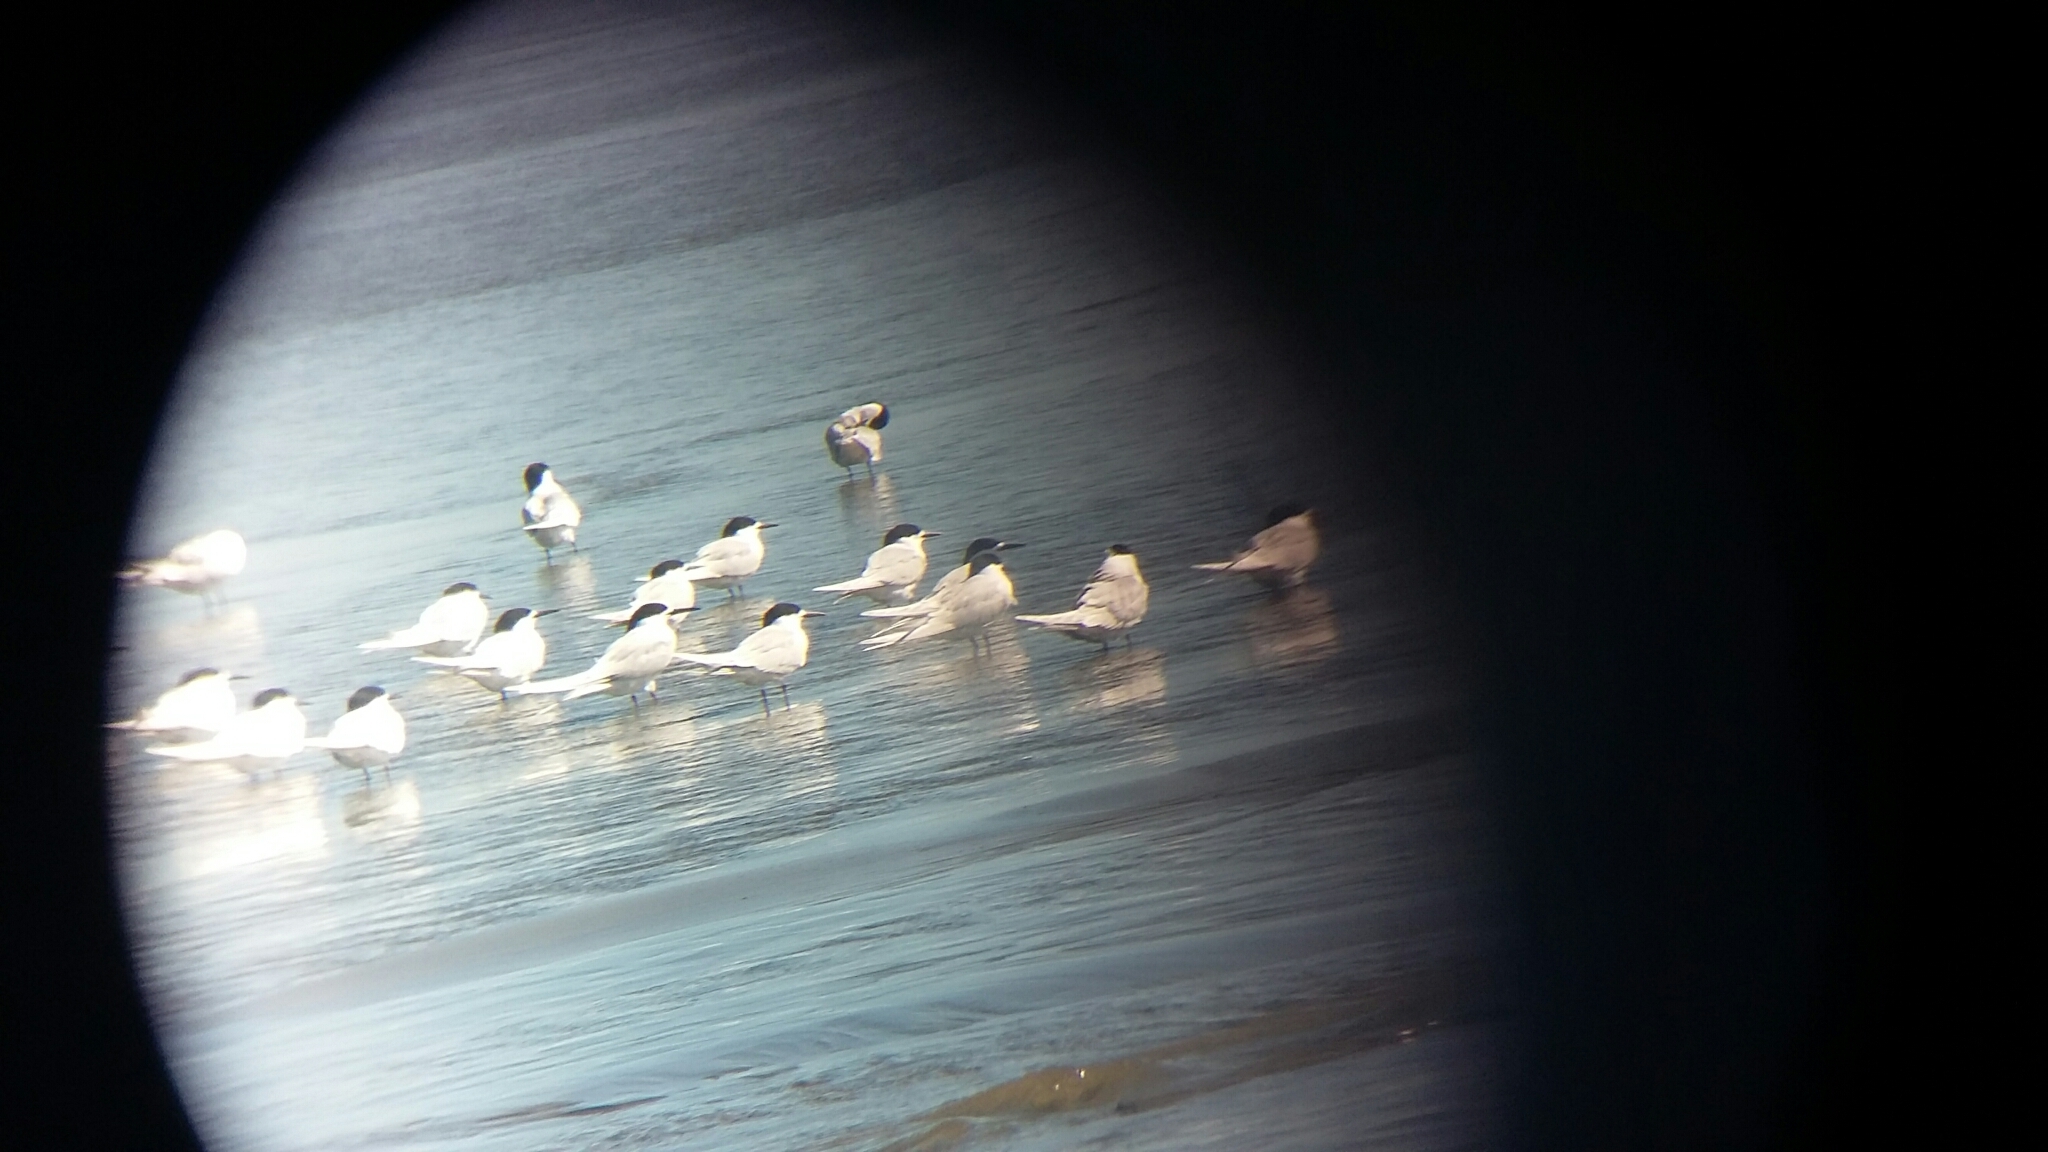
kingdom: Animalia
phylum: Chordata
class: Aves
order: Charadriiformes
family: Laridae
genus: Sterna
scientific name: Sterna striata
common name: White-fronted tern
